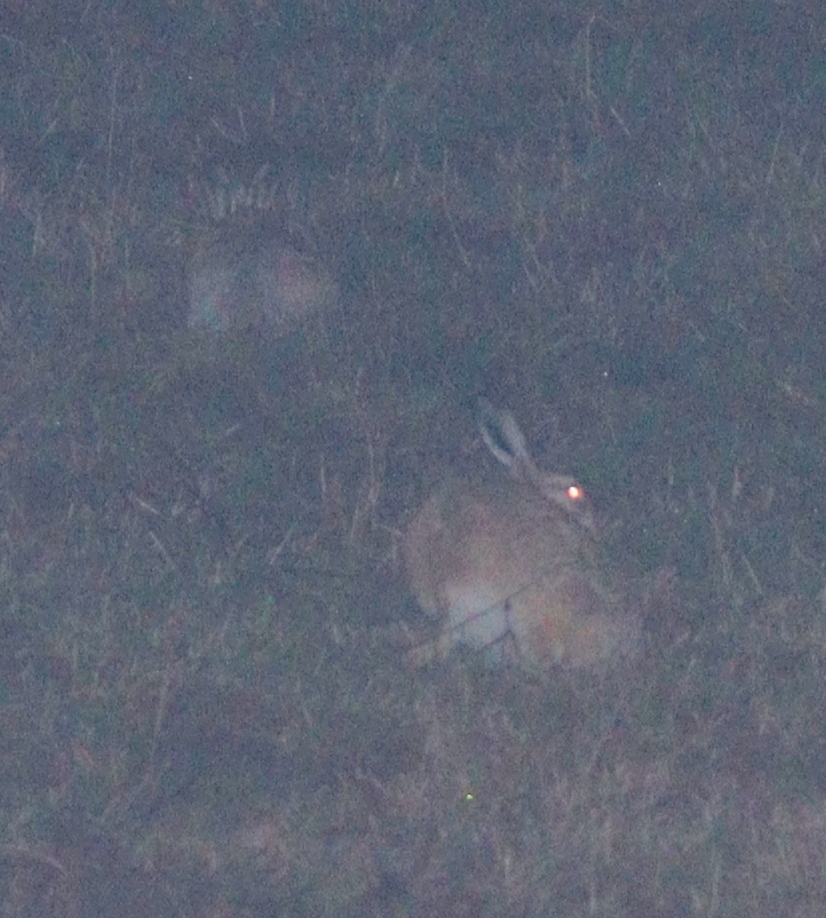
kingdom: Animalia
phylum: Chordata
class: Mammalia
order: Lagomorpha
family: Leporidae
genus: Lepus
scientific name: Lepus europaeus
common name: European hare
